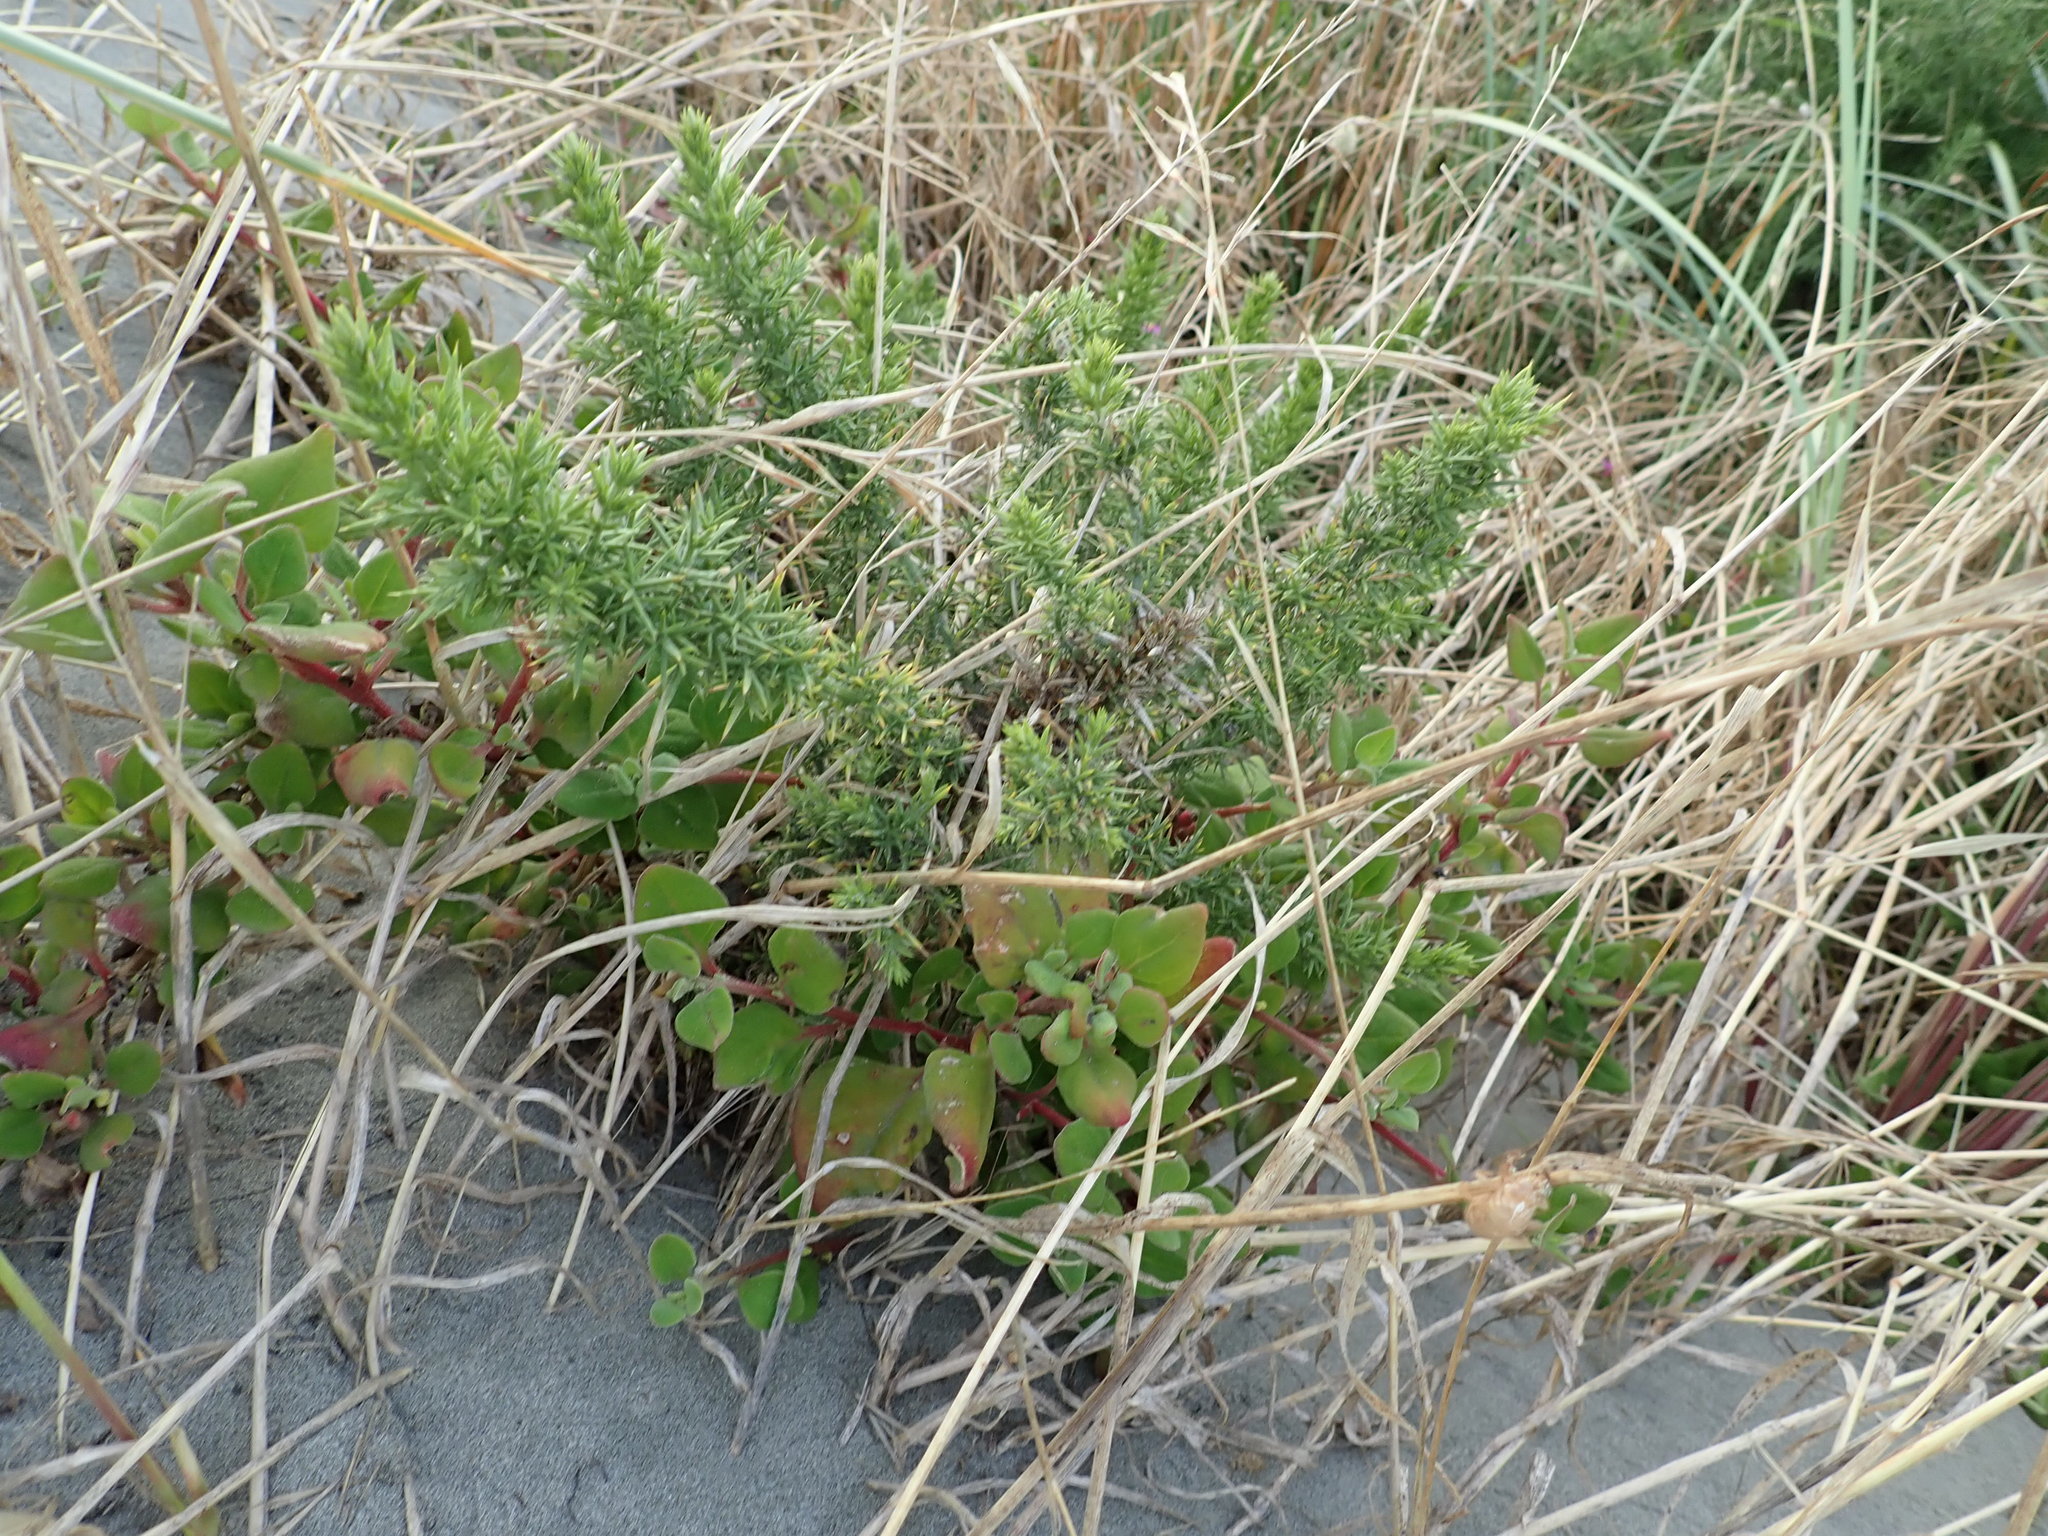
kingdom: Plantae
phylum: Tracheophyta
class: Magnoliopsida
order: Fabales
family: Fabaceae
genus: Ulex
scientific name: Ulex europaeus
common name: Common gorse
